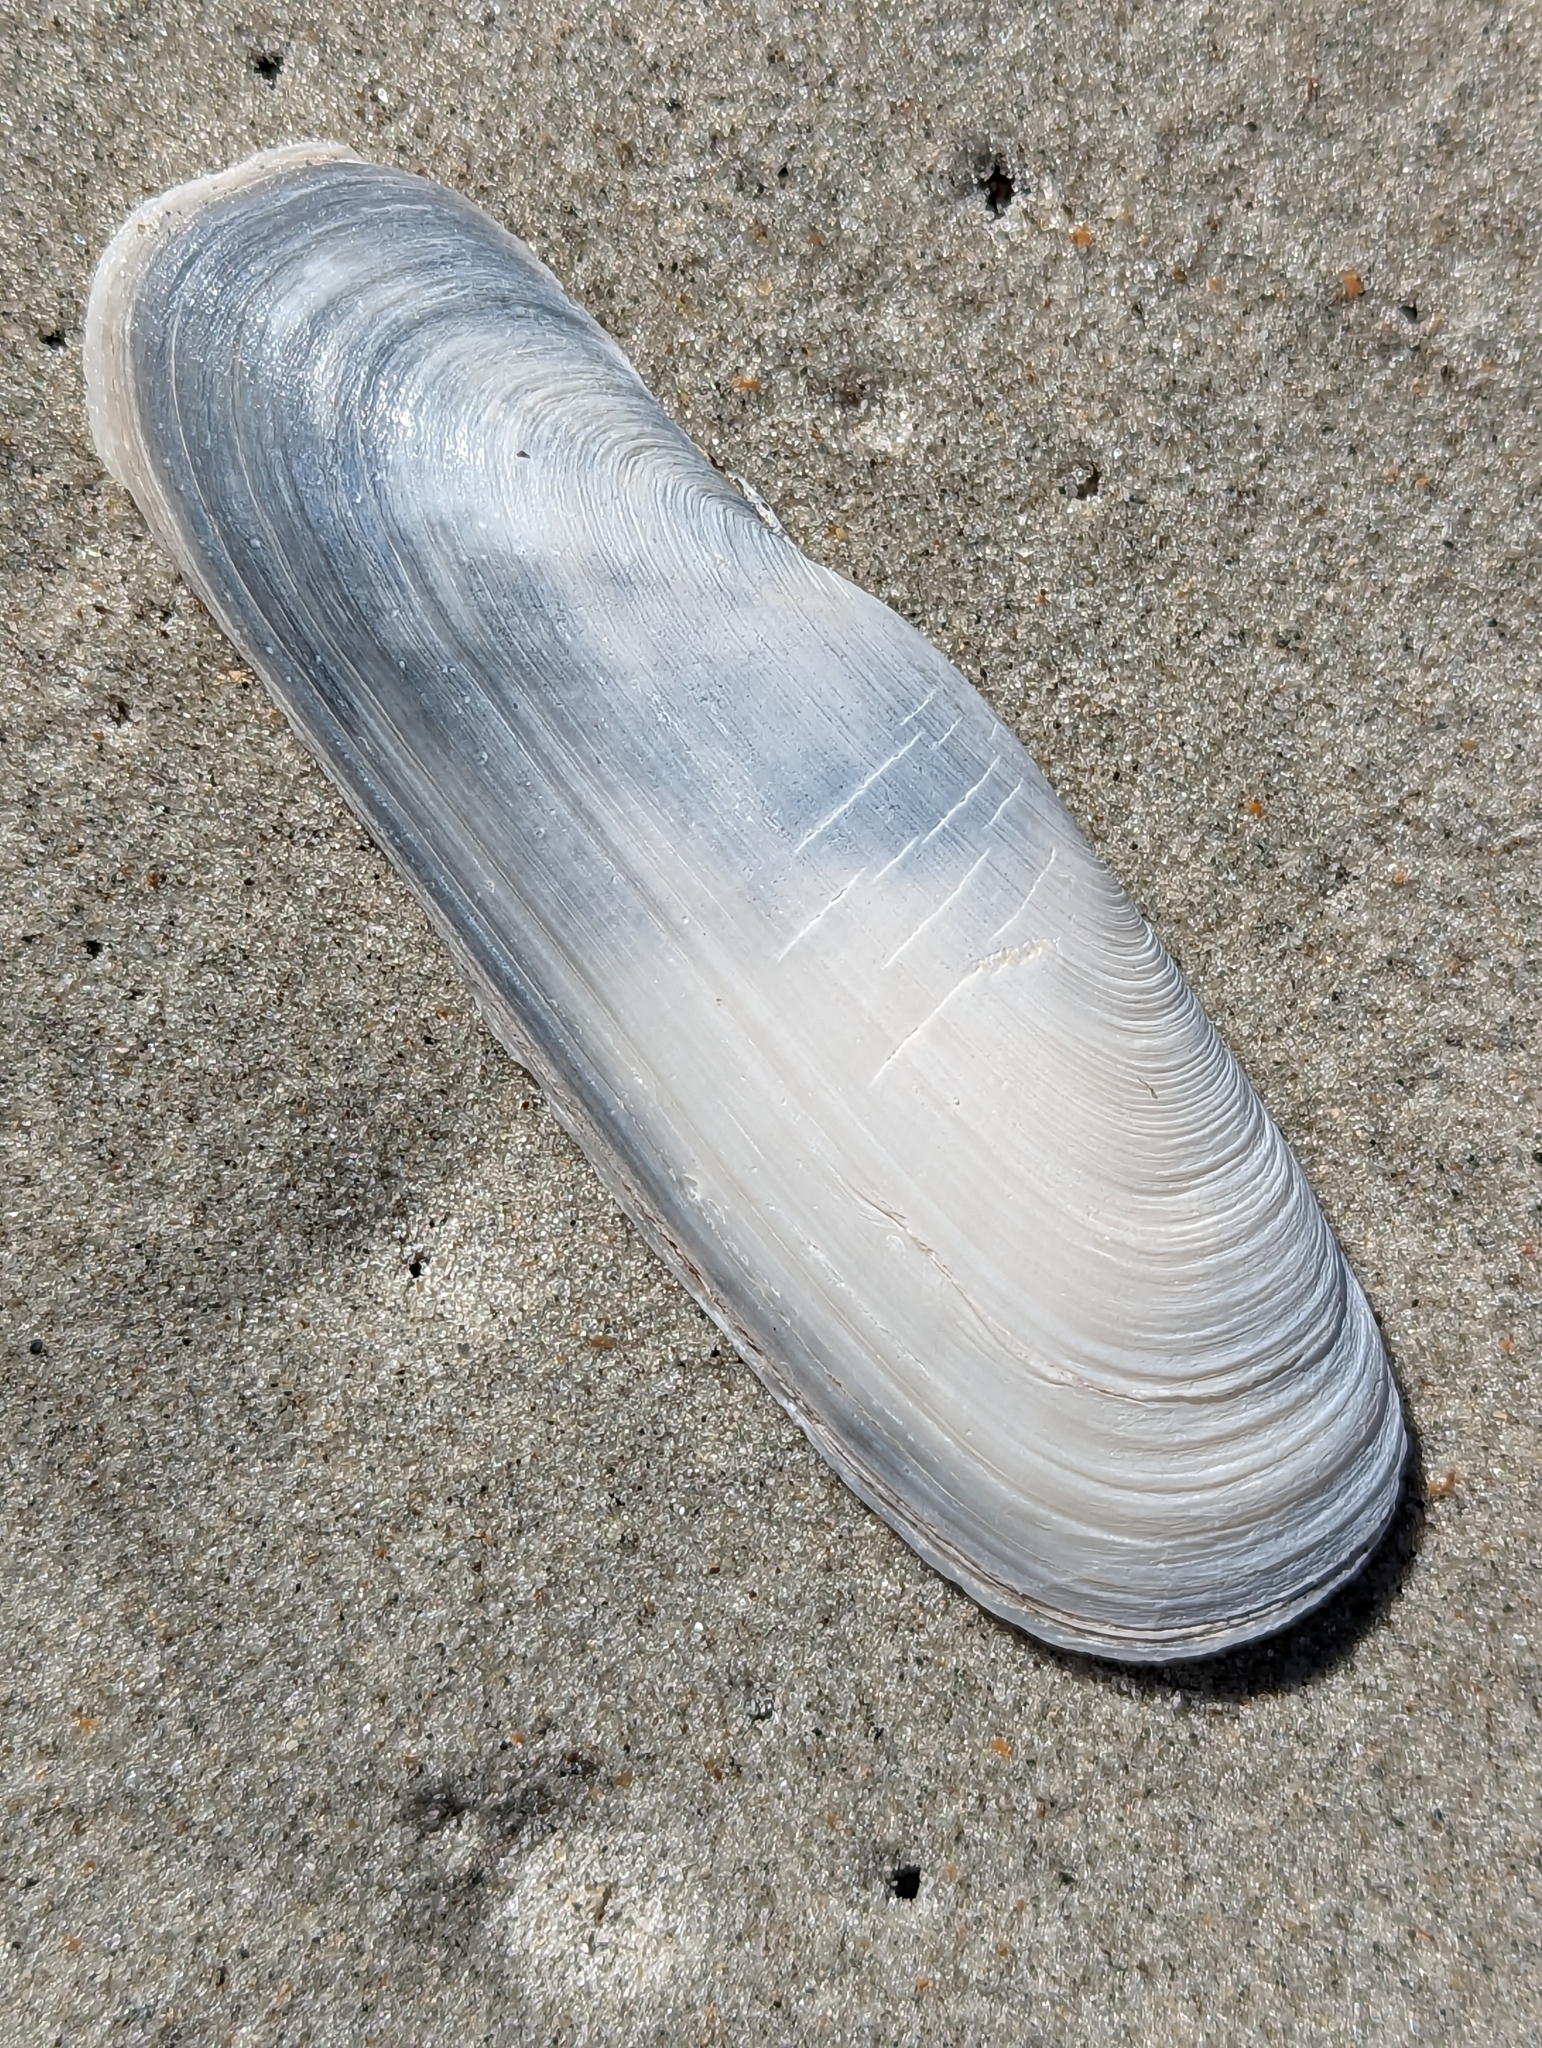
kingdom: Animalia
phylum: Mollusca
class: Bivalvia
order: Cardiida
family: Solecurtidae
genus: Tagelus
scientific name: Tagelus plebeius
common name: Stout tagelus
